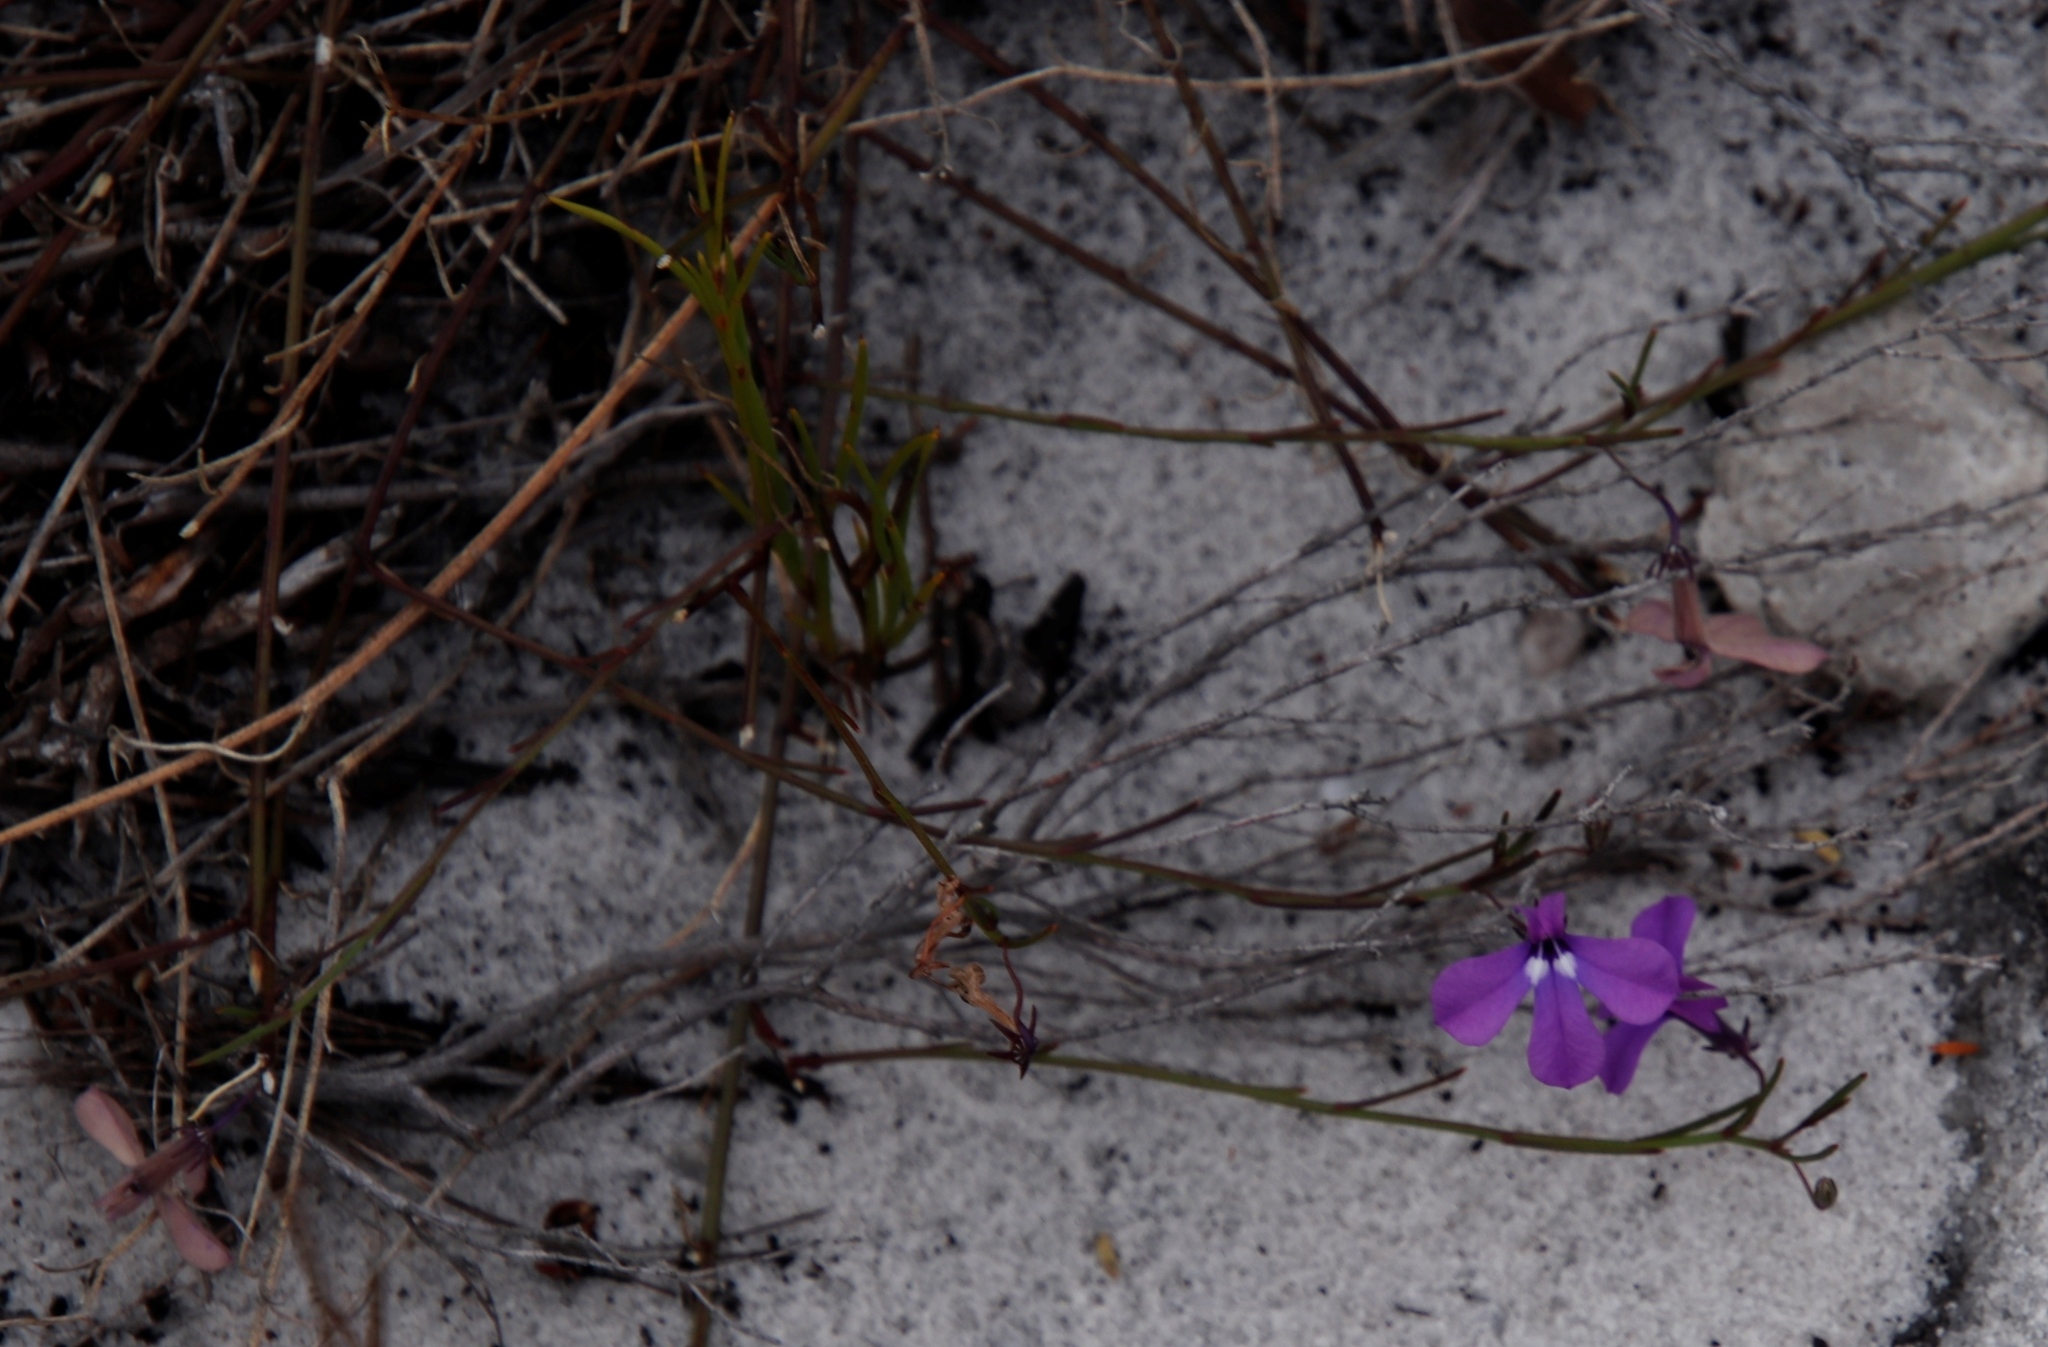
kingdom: Plantae
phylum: Tracheophyta
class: Magnoliopsida
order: Asterales
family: Campanulaceae
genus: Lobelia
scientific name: Lobelia setacea
